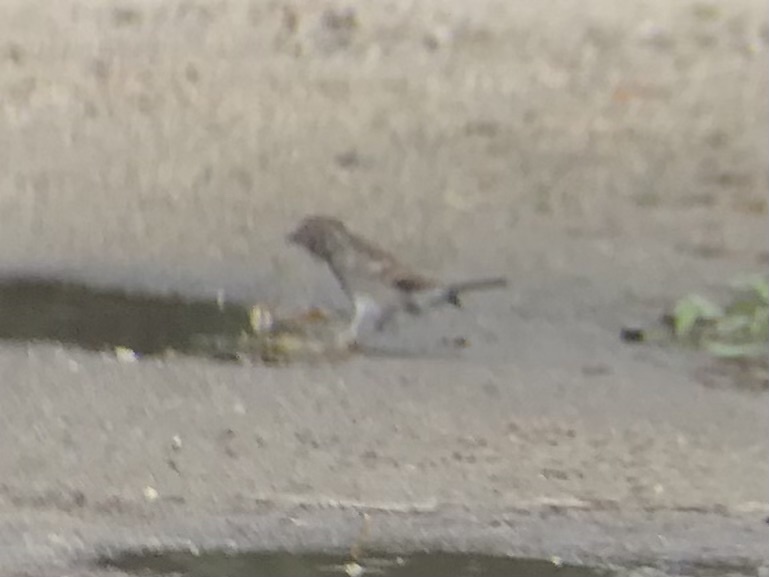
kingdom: Animalia
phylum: Chordata
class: Aves
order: Passeriformes
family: Passerellidae
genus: Spizella
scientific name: Spizella passerina
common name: Chipping sparrow
